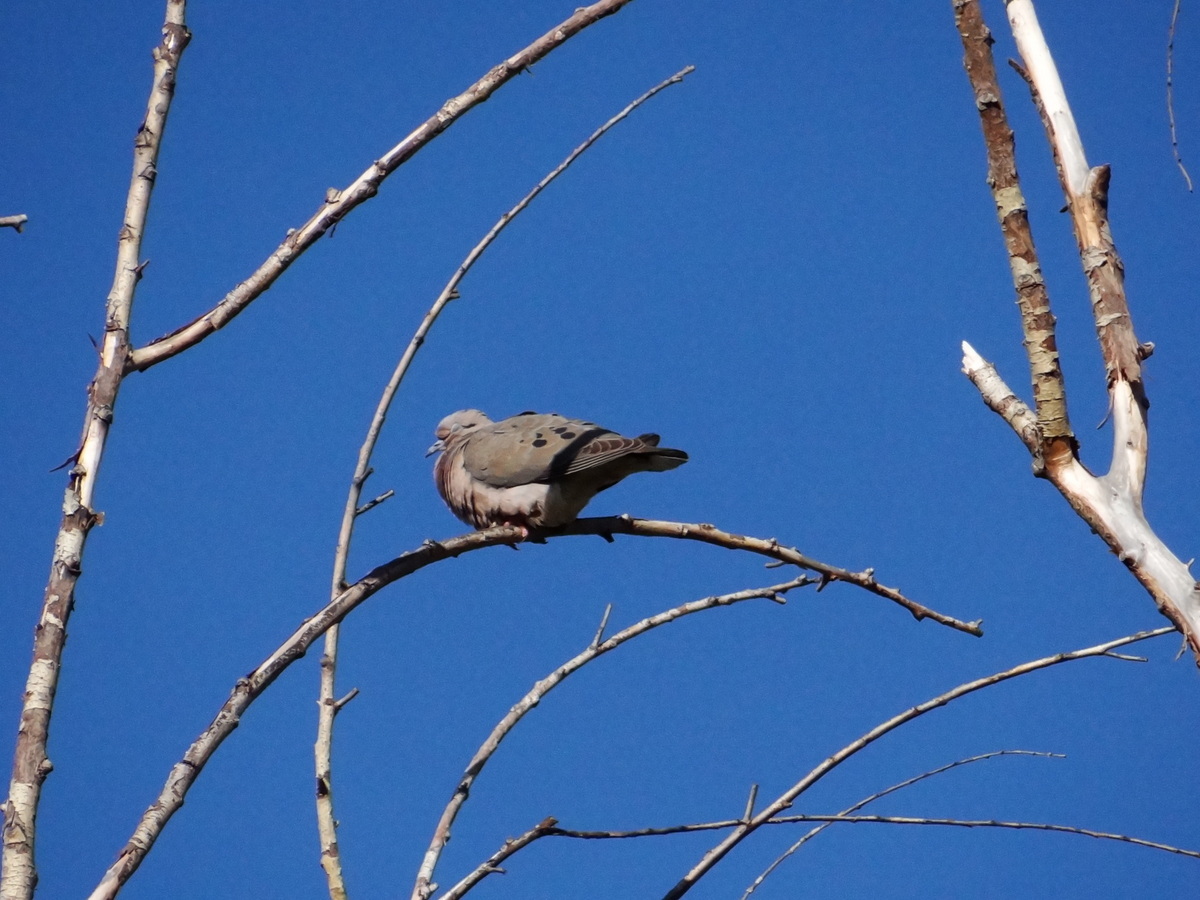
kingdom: Animalia
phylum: Chordata
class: Aves
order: Columbiformes
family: Columbidae
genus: Zenaida
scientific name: Zenaida auriculata
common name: Eared dove
